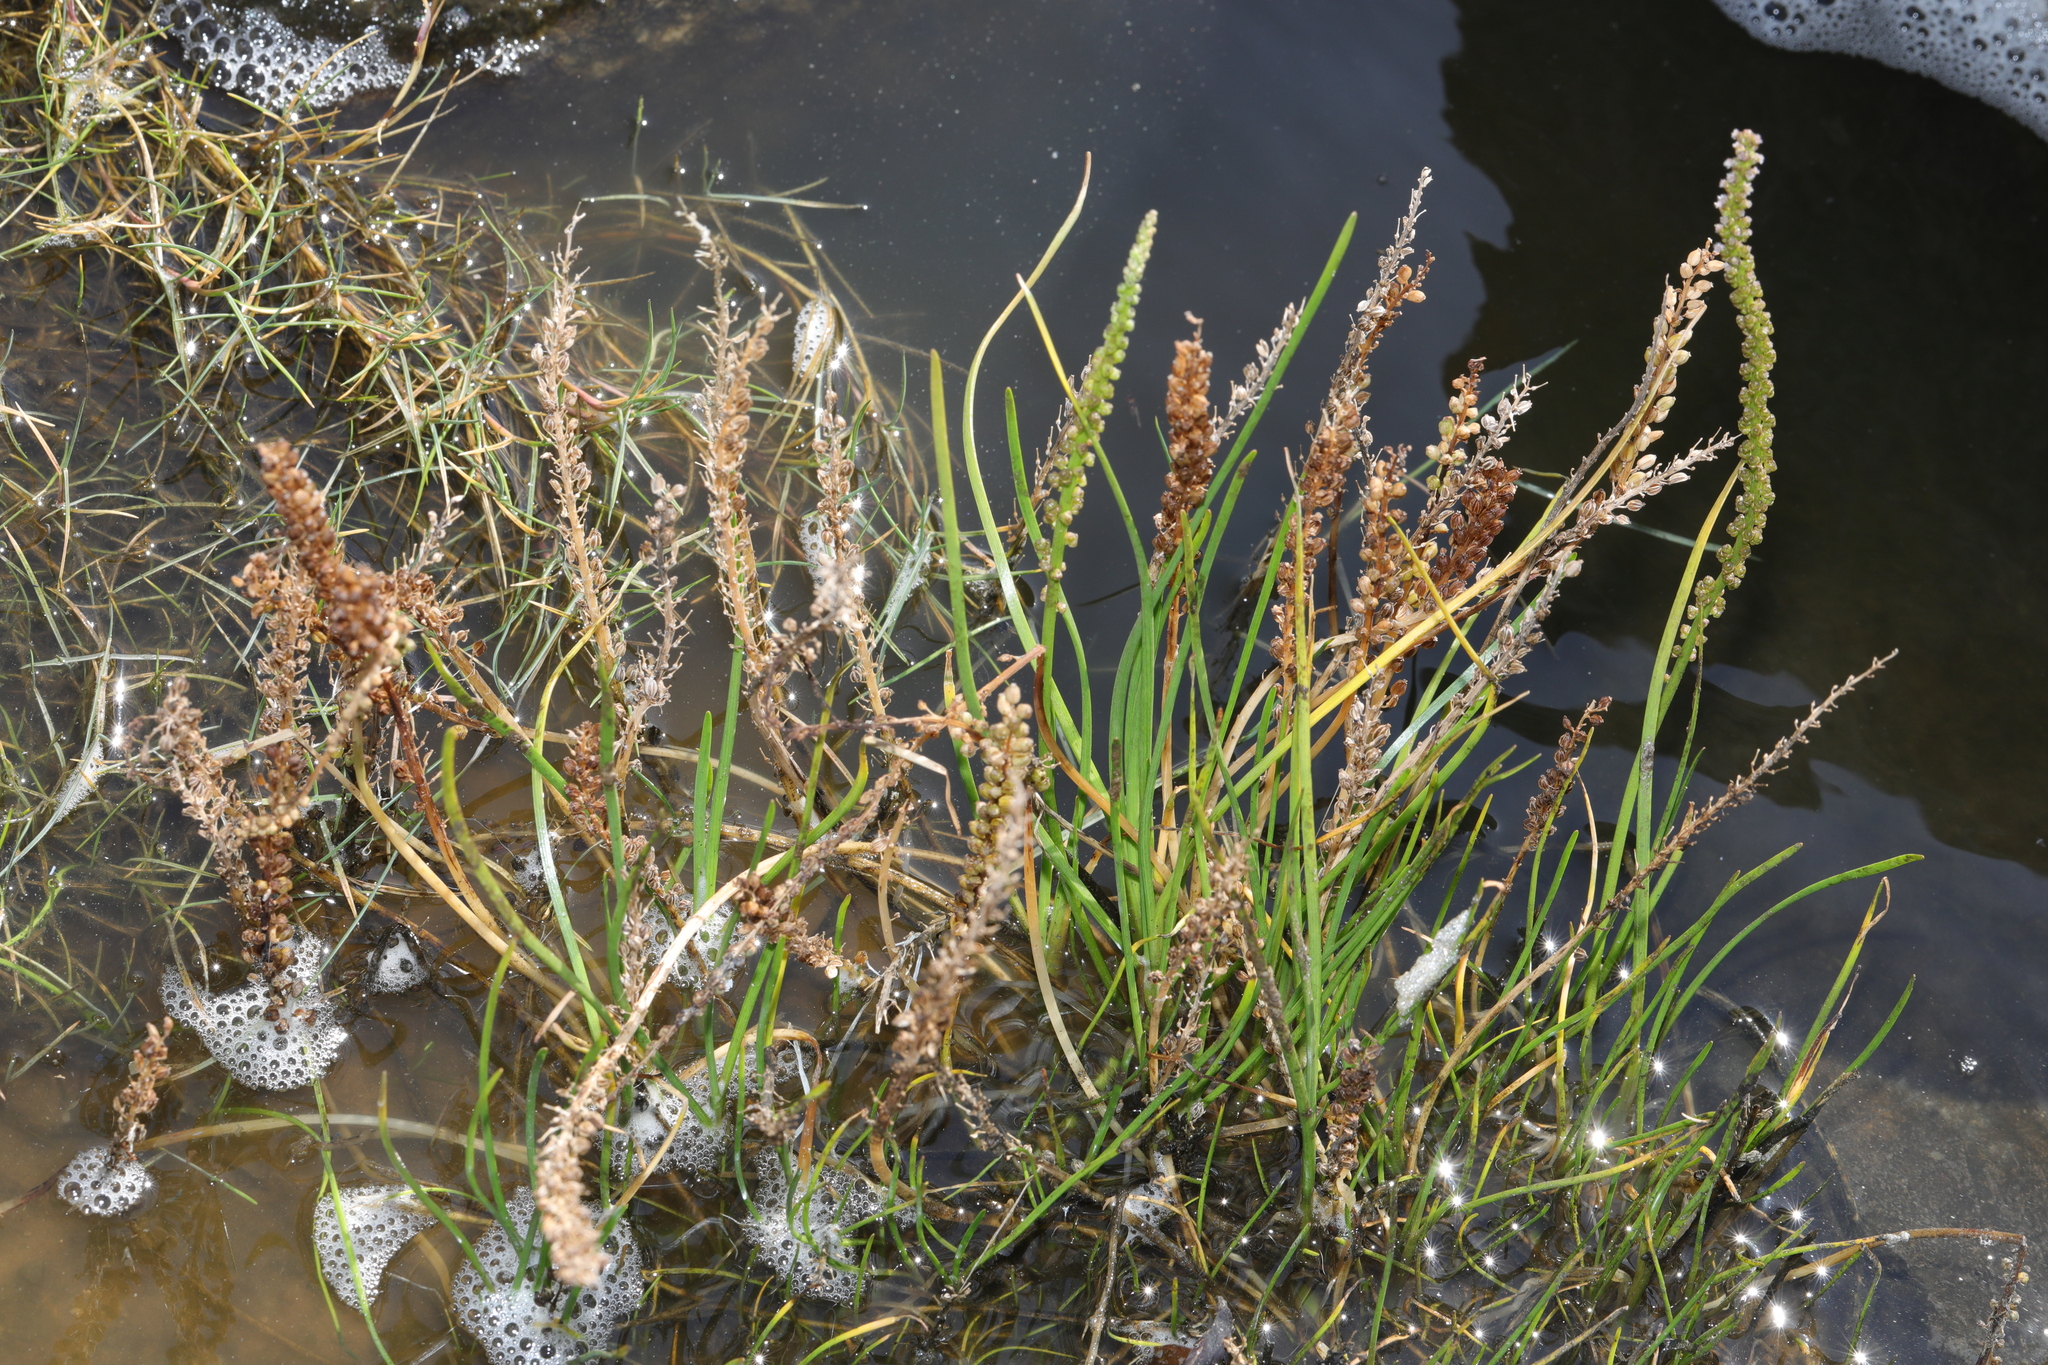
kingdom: Plantae
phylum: Tracheophyta
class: Liliopsida
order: Alismatales
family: Juncaginaceae
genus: Triglochin
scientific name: Triglochin maritima
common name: Sea arrowgrass
